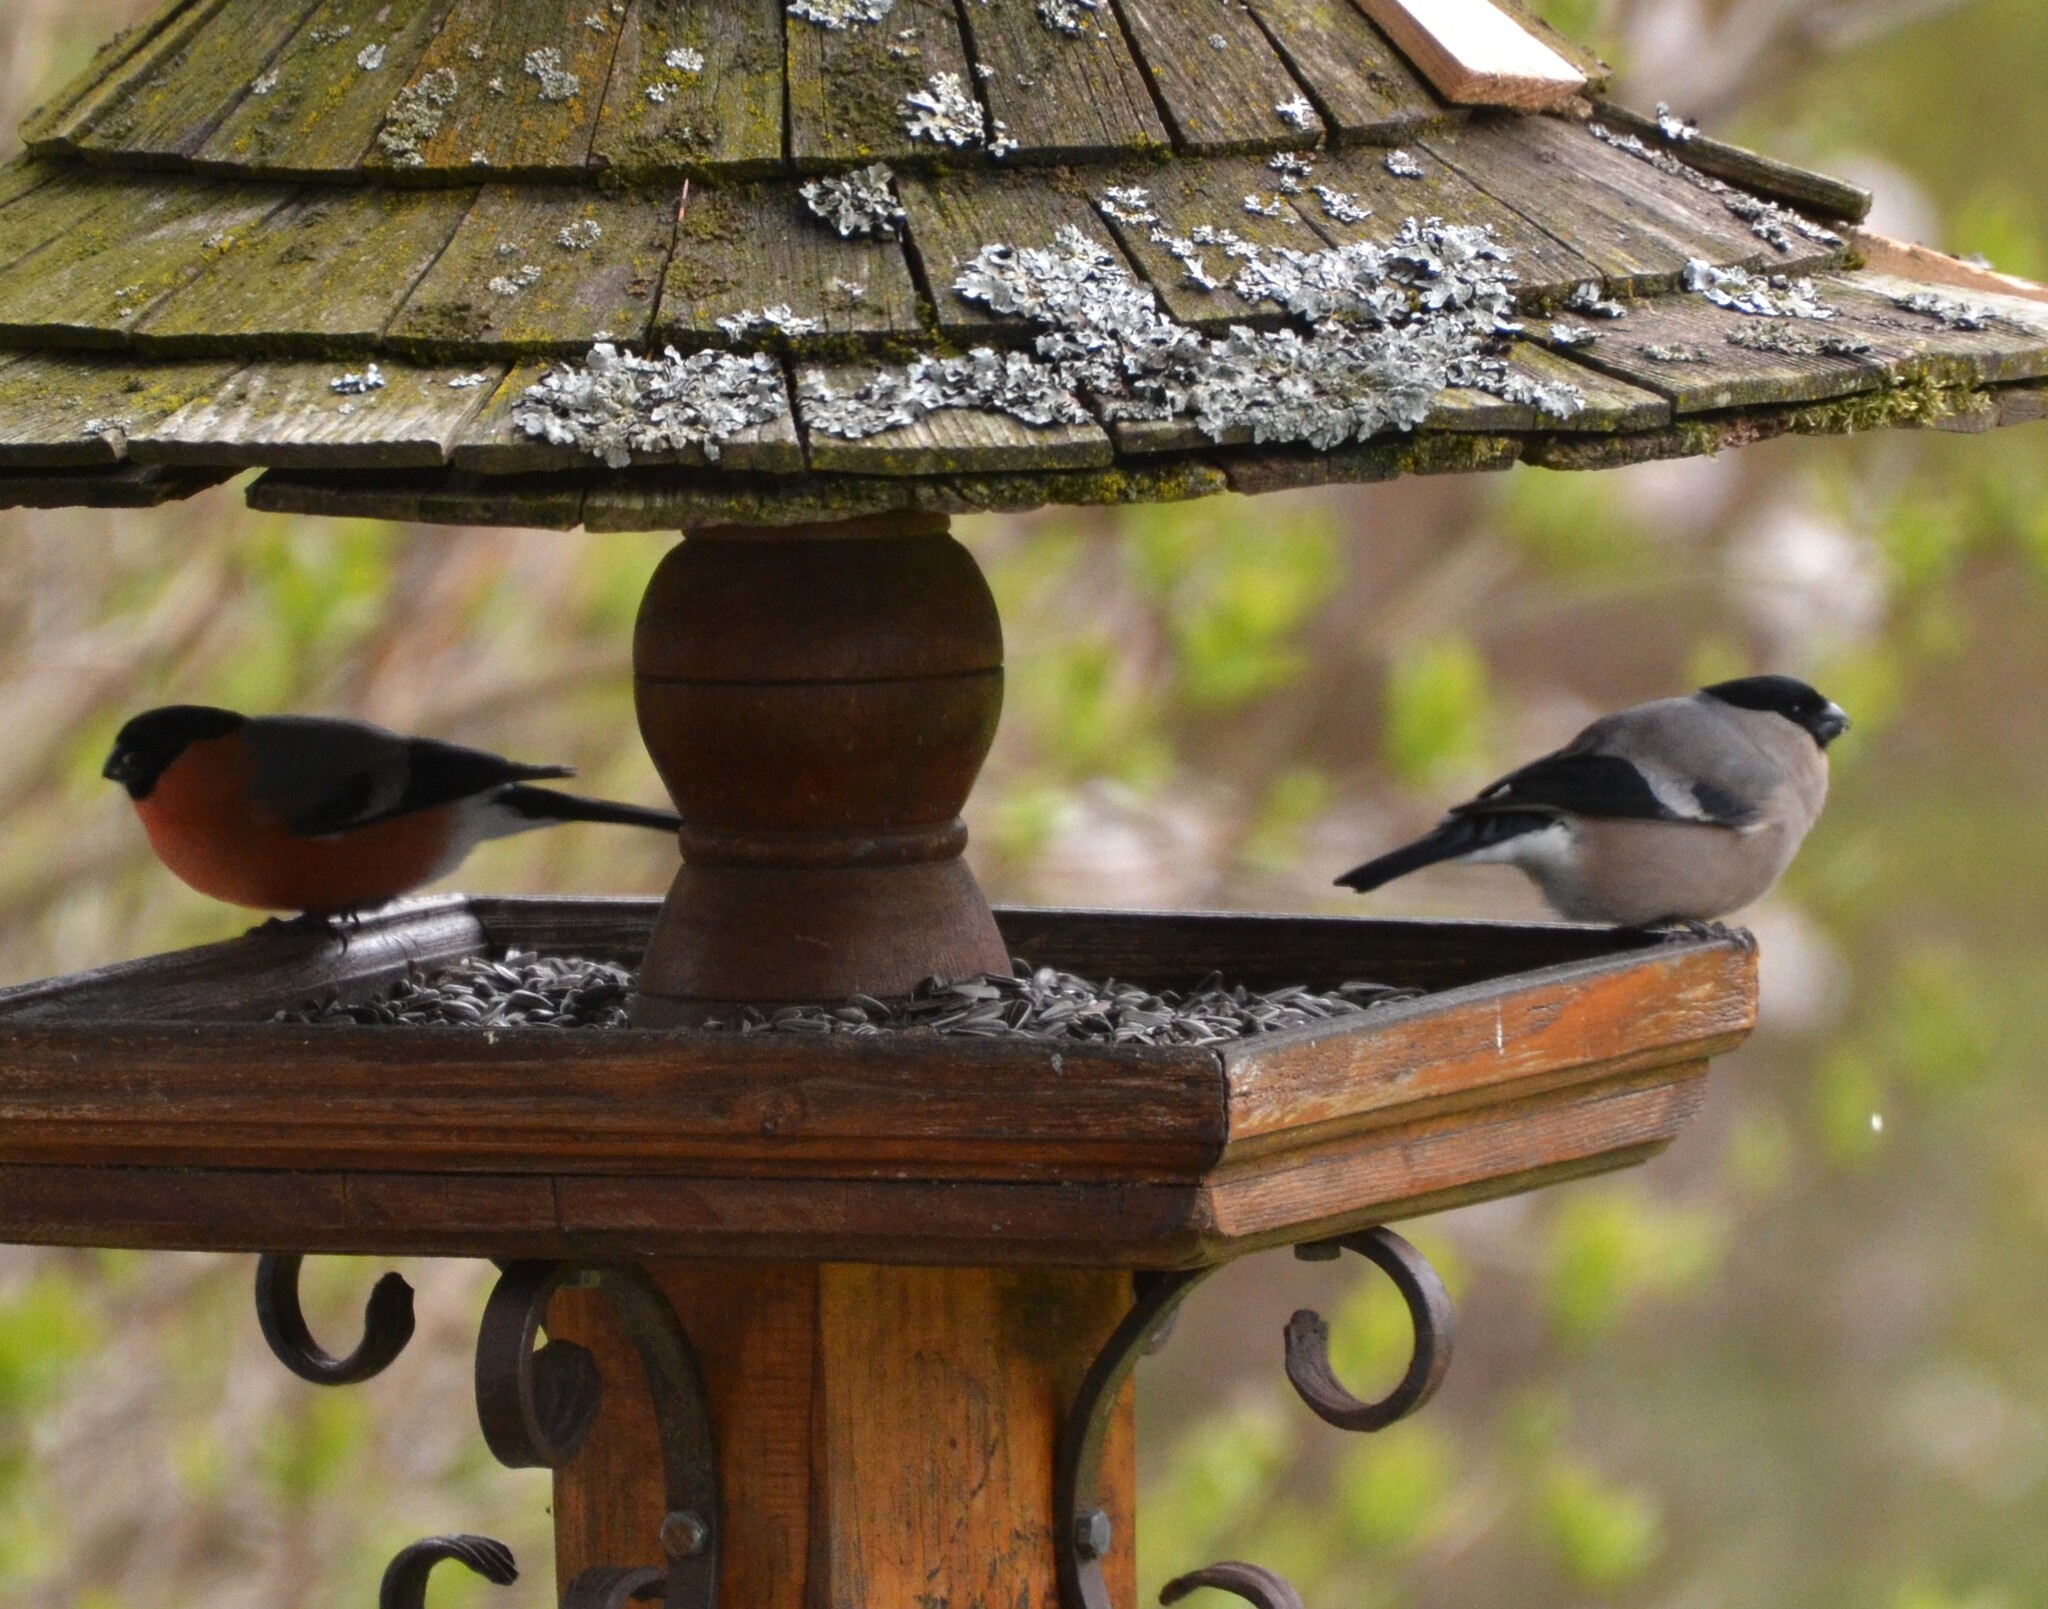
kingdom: Animalia
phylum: Chordata
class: Aves
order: Passeriformes
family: Fringillidae
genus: Pyrrhula
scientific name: Pyrrhula pyrrhula
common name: Eurasian bullfinch
